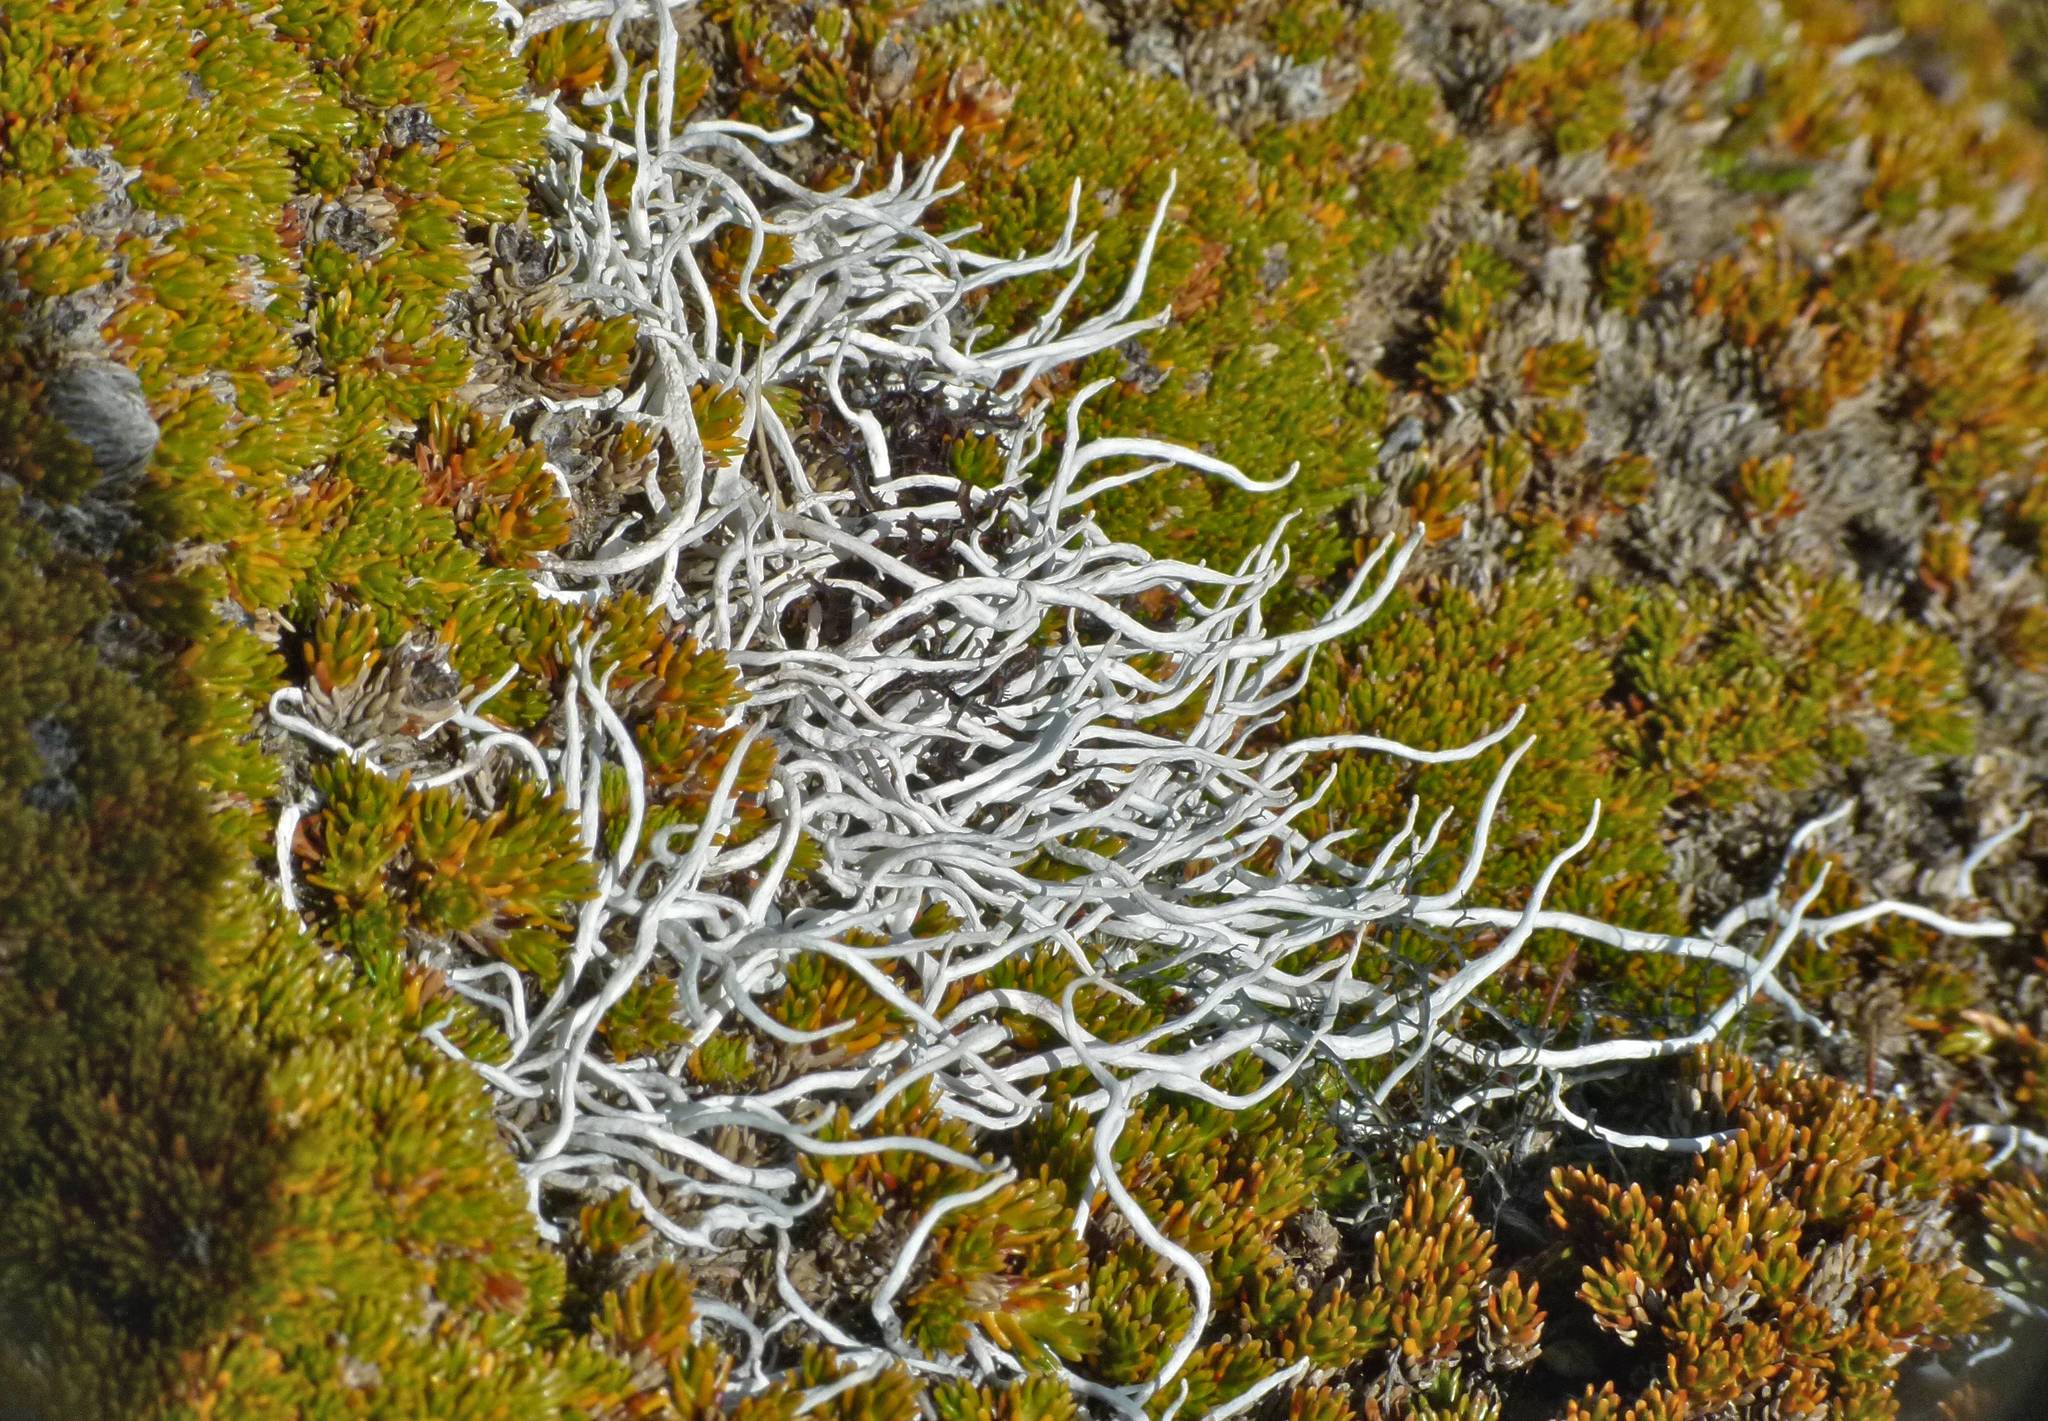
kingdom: Plantae
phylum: Tracheophyta
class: Magnoliopsida
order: Ericales
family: Ericaceae
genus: Dracophyllum
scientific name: Dracophyllum muscoides
